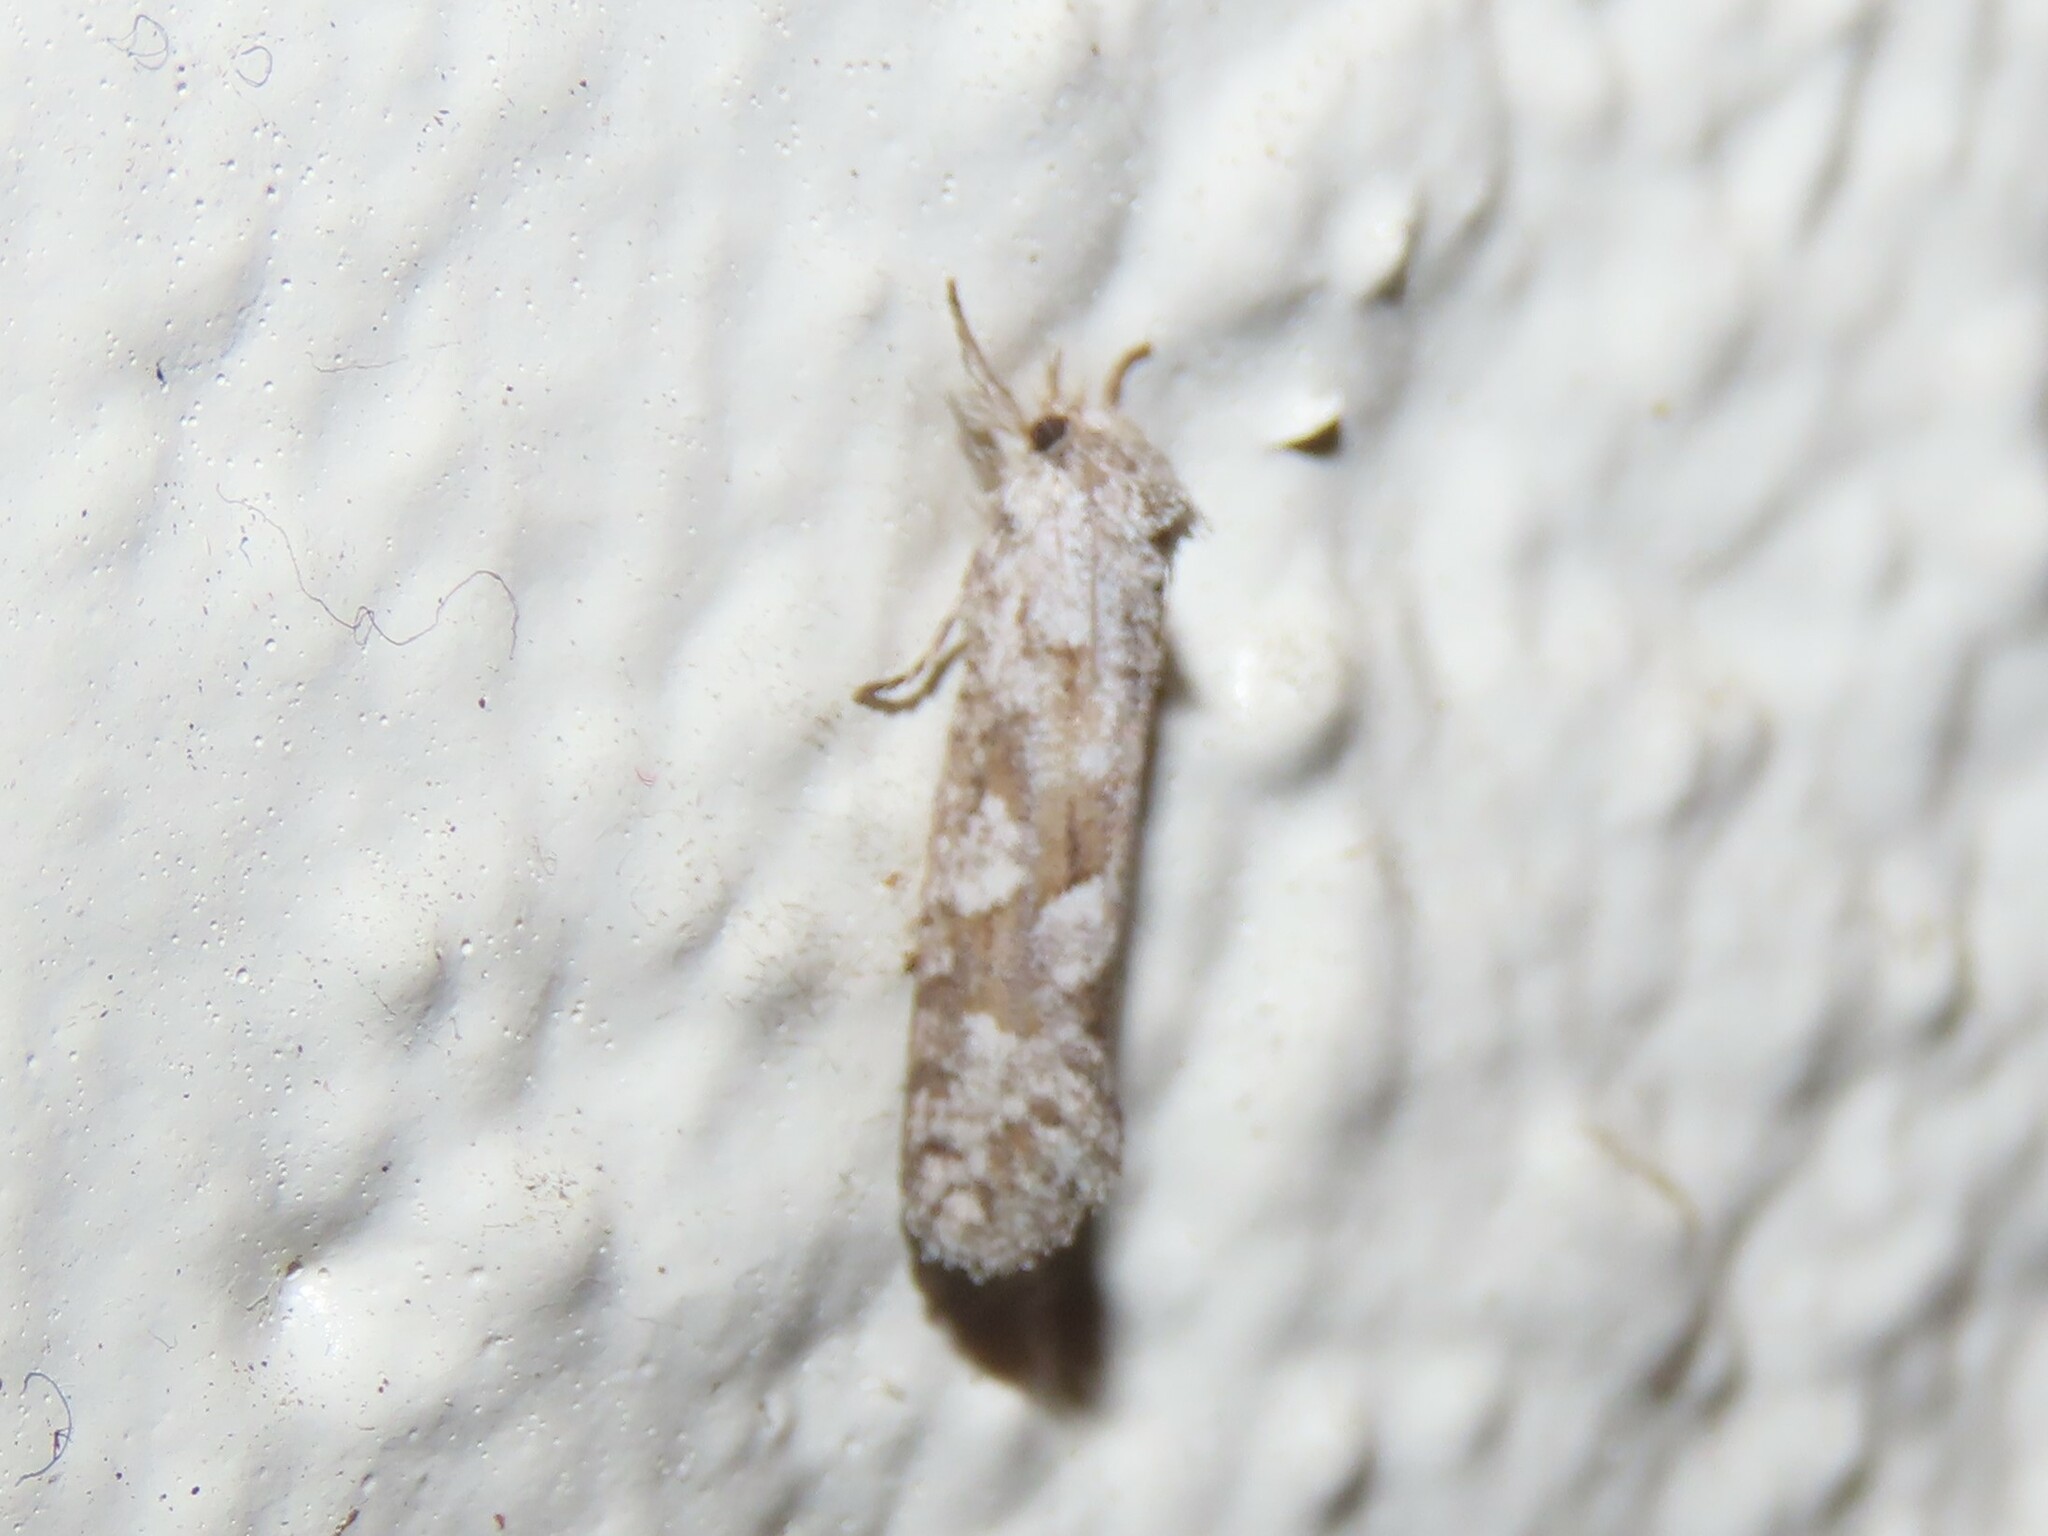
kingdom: Animalia
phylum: Arthropoda
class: Insecta
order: Lepidoptera
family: Tineidae
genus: Acrolophus
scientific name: Acrolophus forbesi
